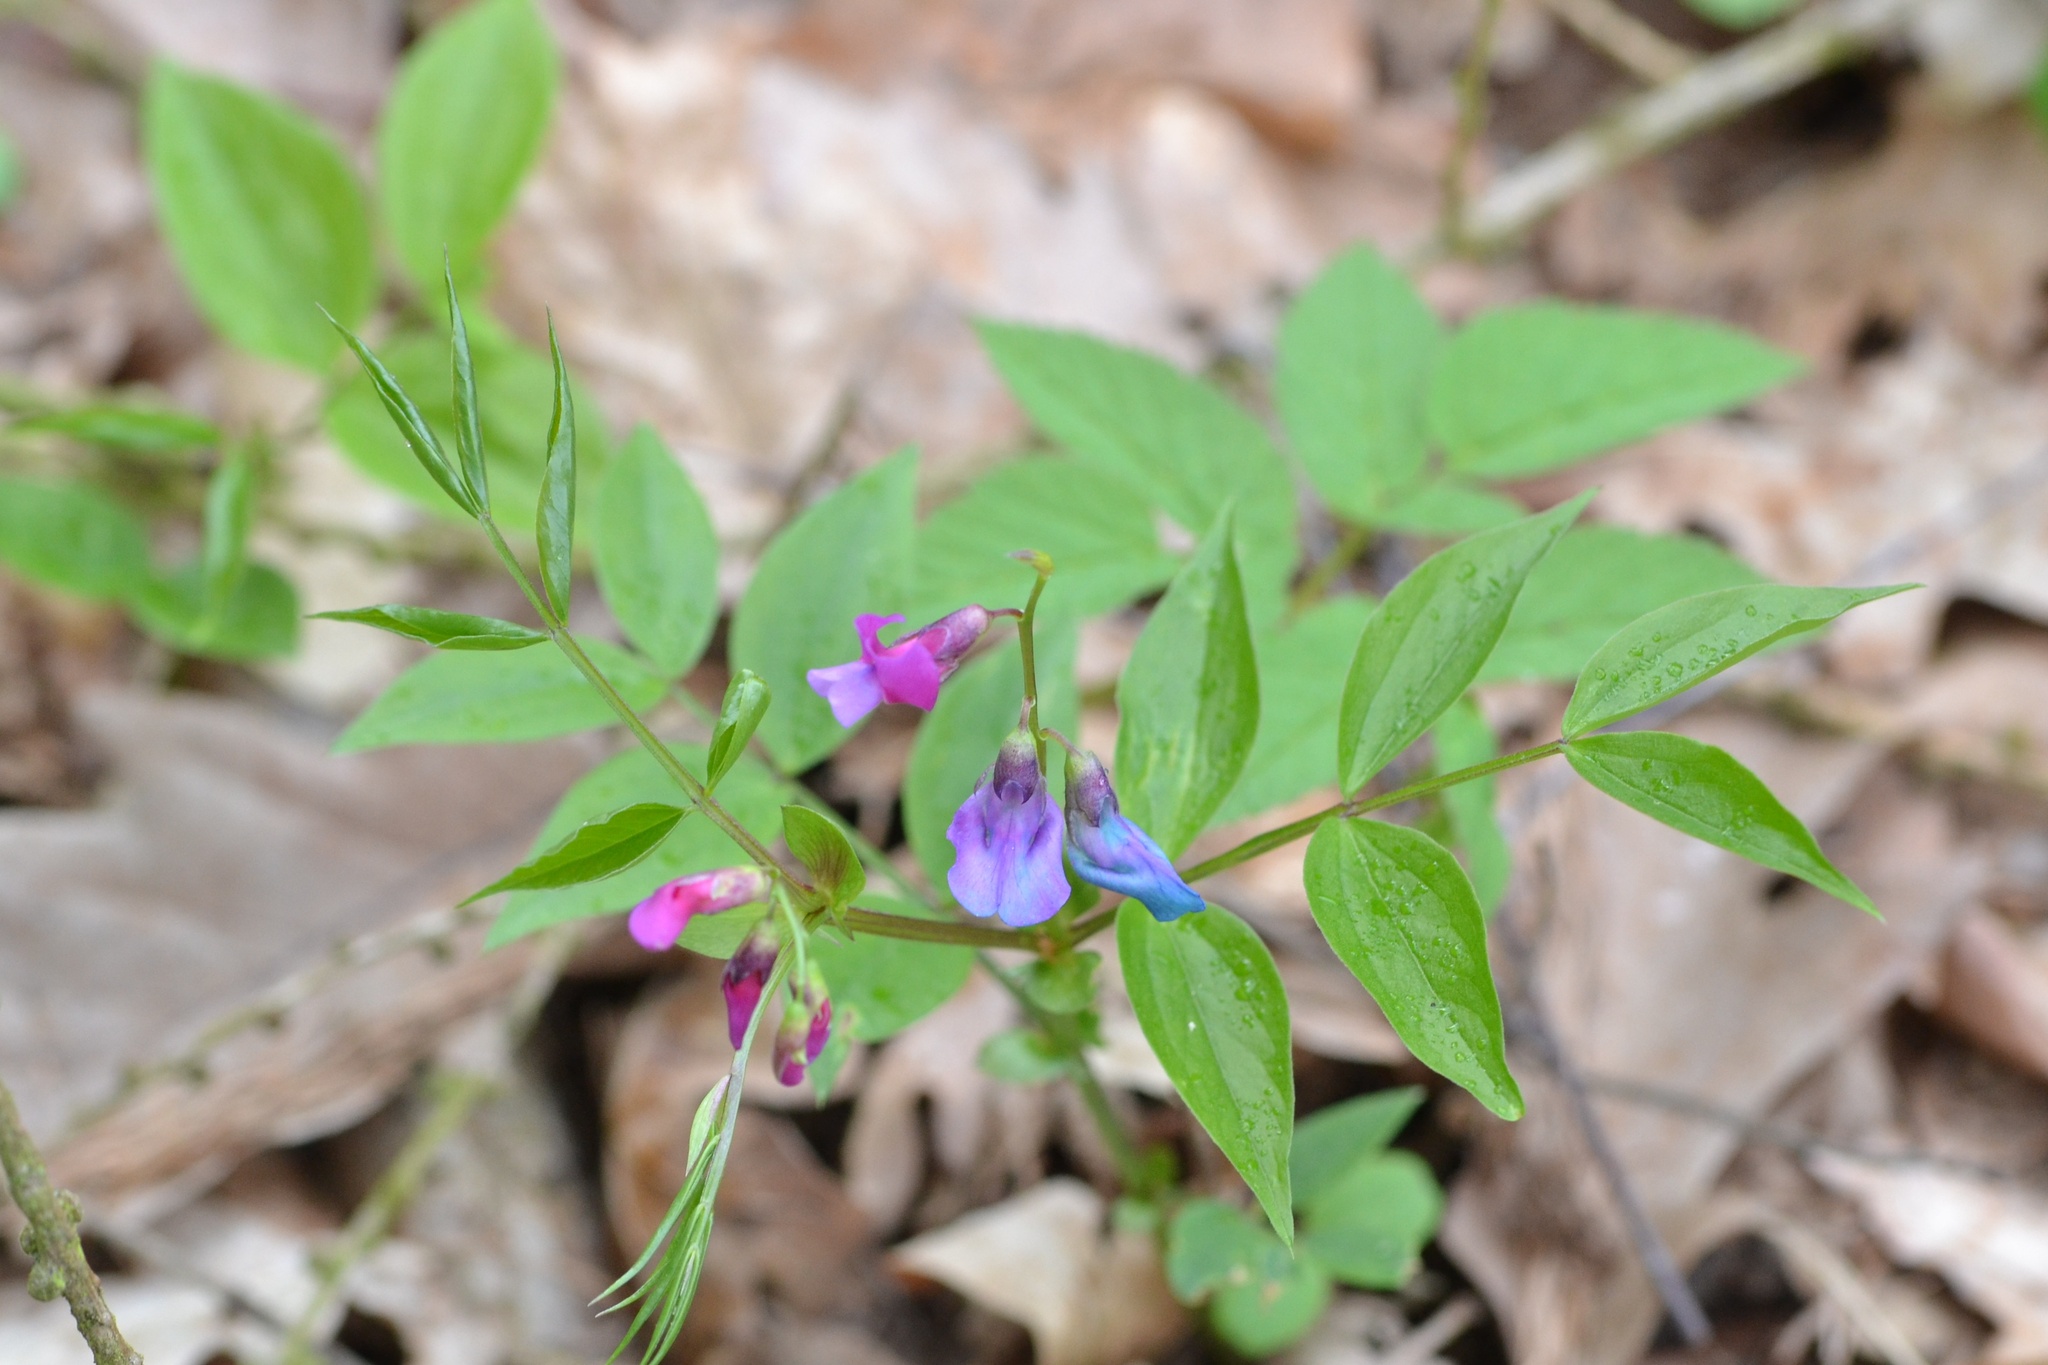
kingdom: Plantae
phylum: Tracheophyta
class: Magnoliopsida
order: Fabales
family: Fabaceae
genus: Lathyrus
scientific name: Lathyrus vernus
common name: Spring pea
